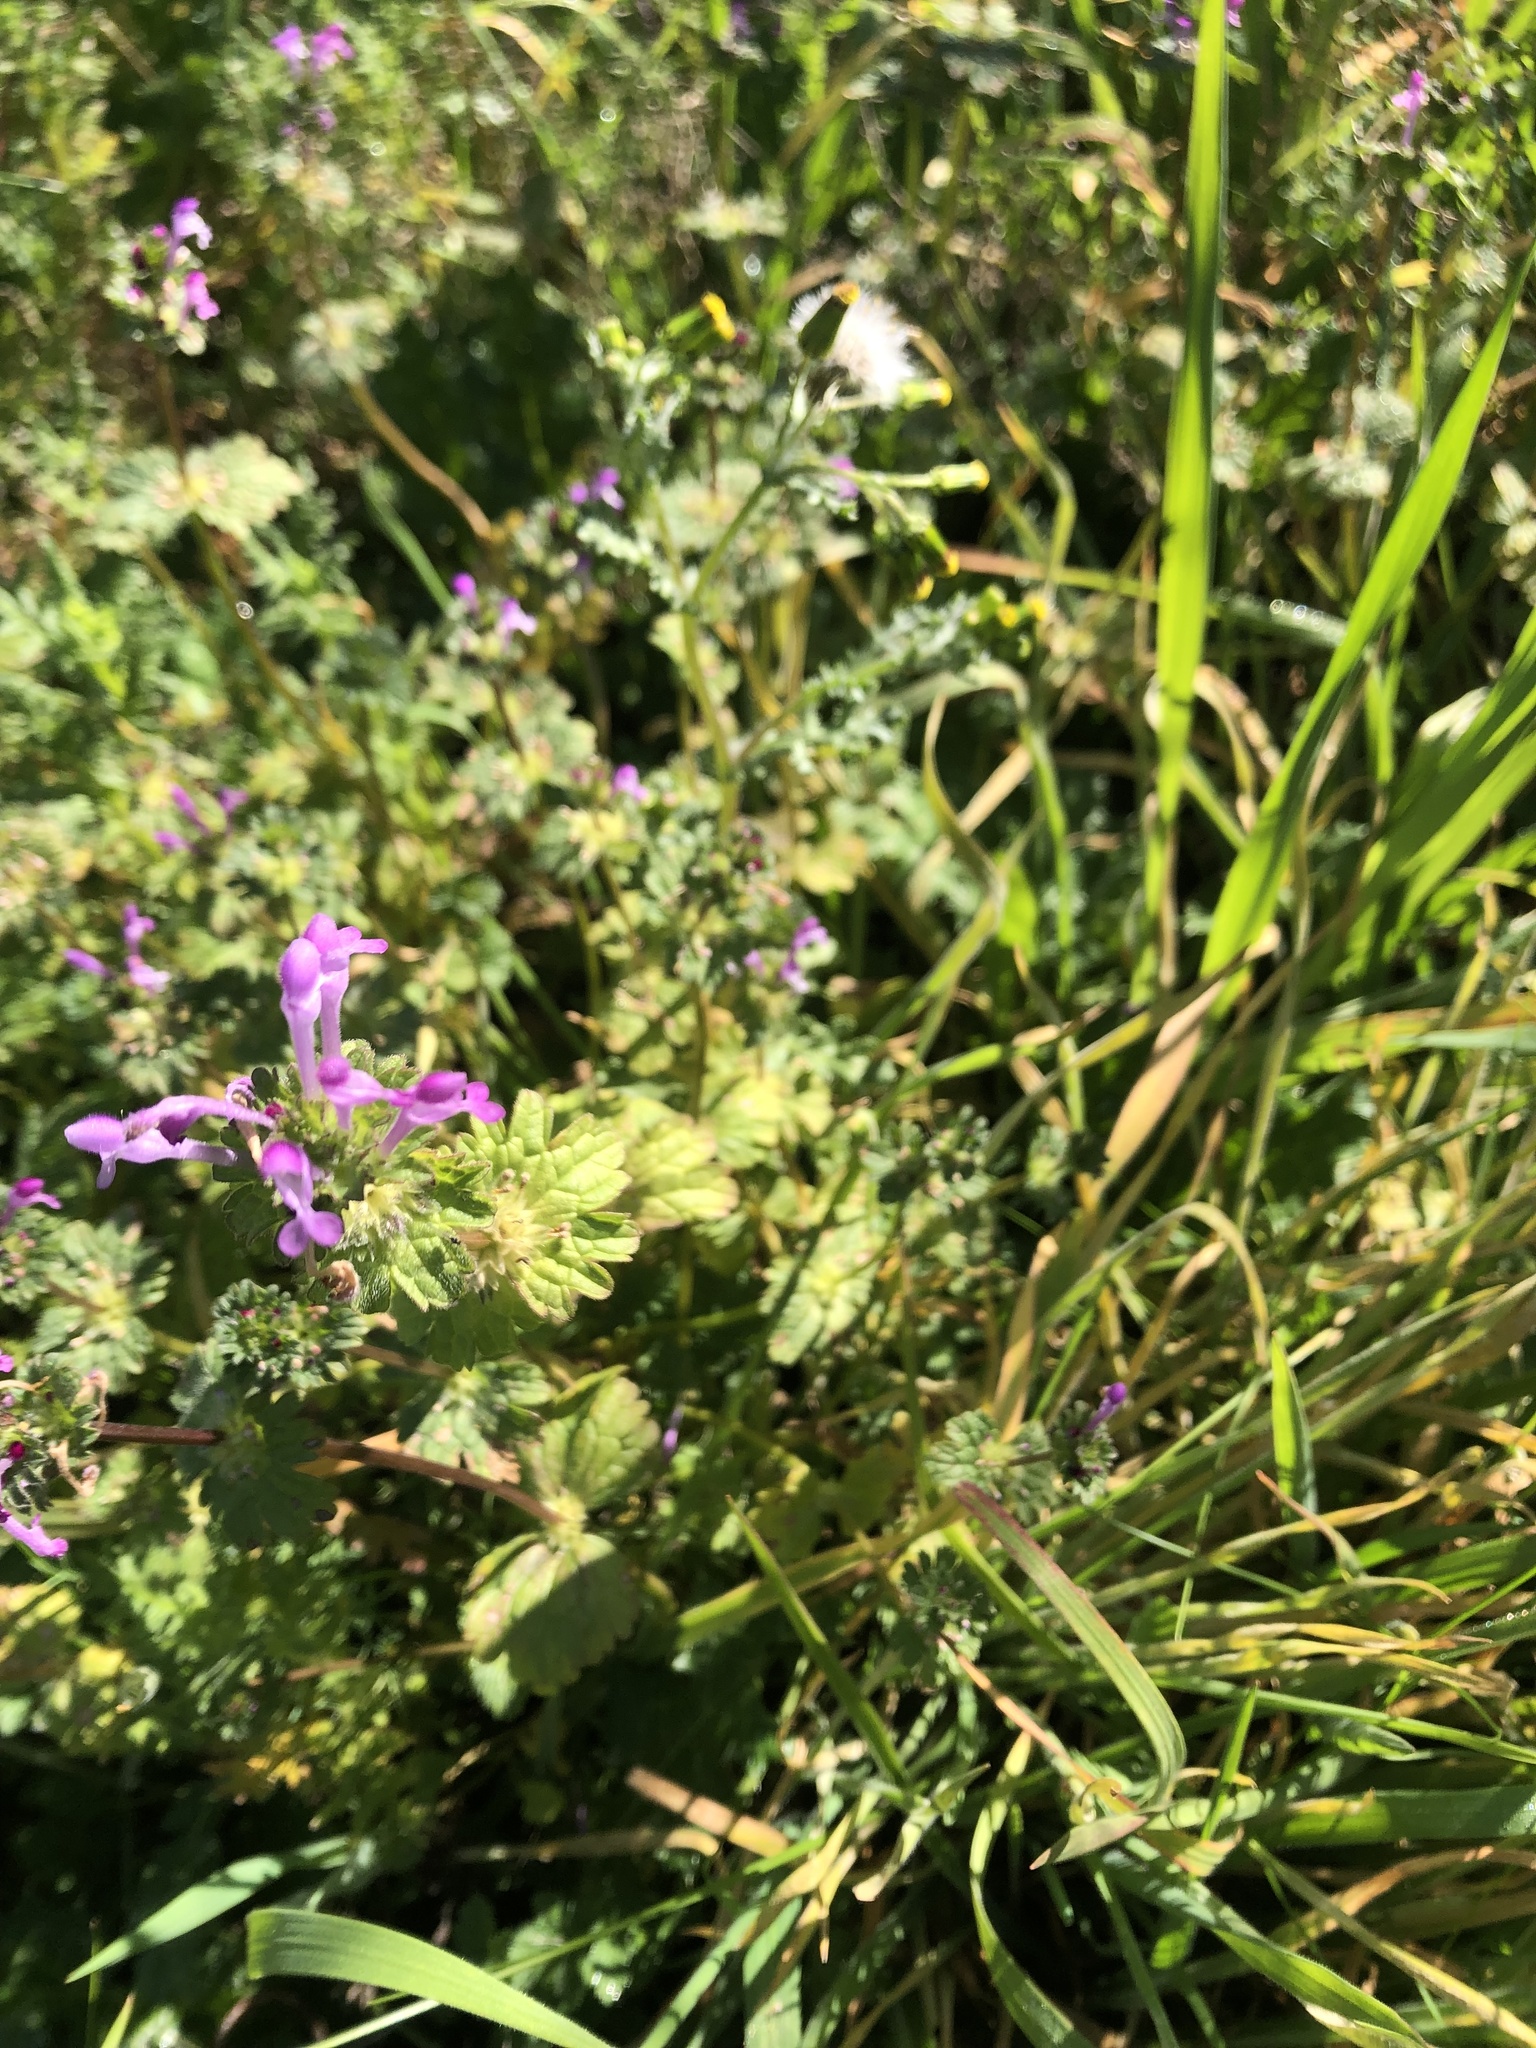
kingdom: Plantae
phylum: Tracheophyta
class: Magnoliopsida
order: Lamiales
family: Lamiaceae
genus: Lamium
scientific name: Lamium amplexicaule
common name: Henbit dead-nettle
